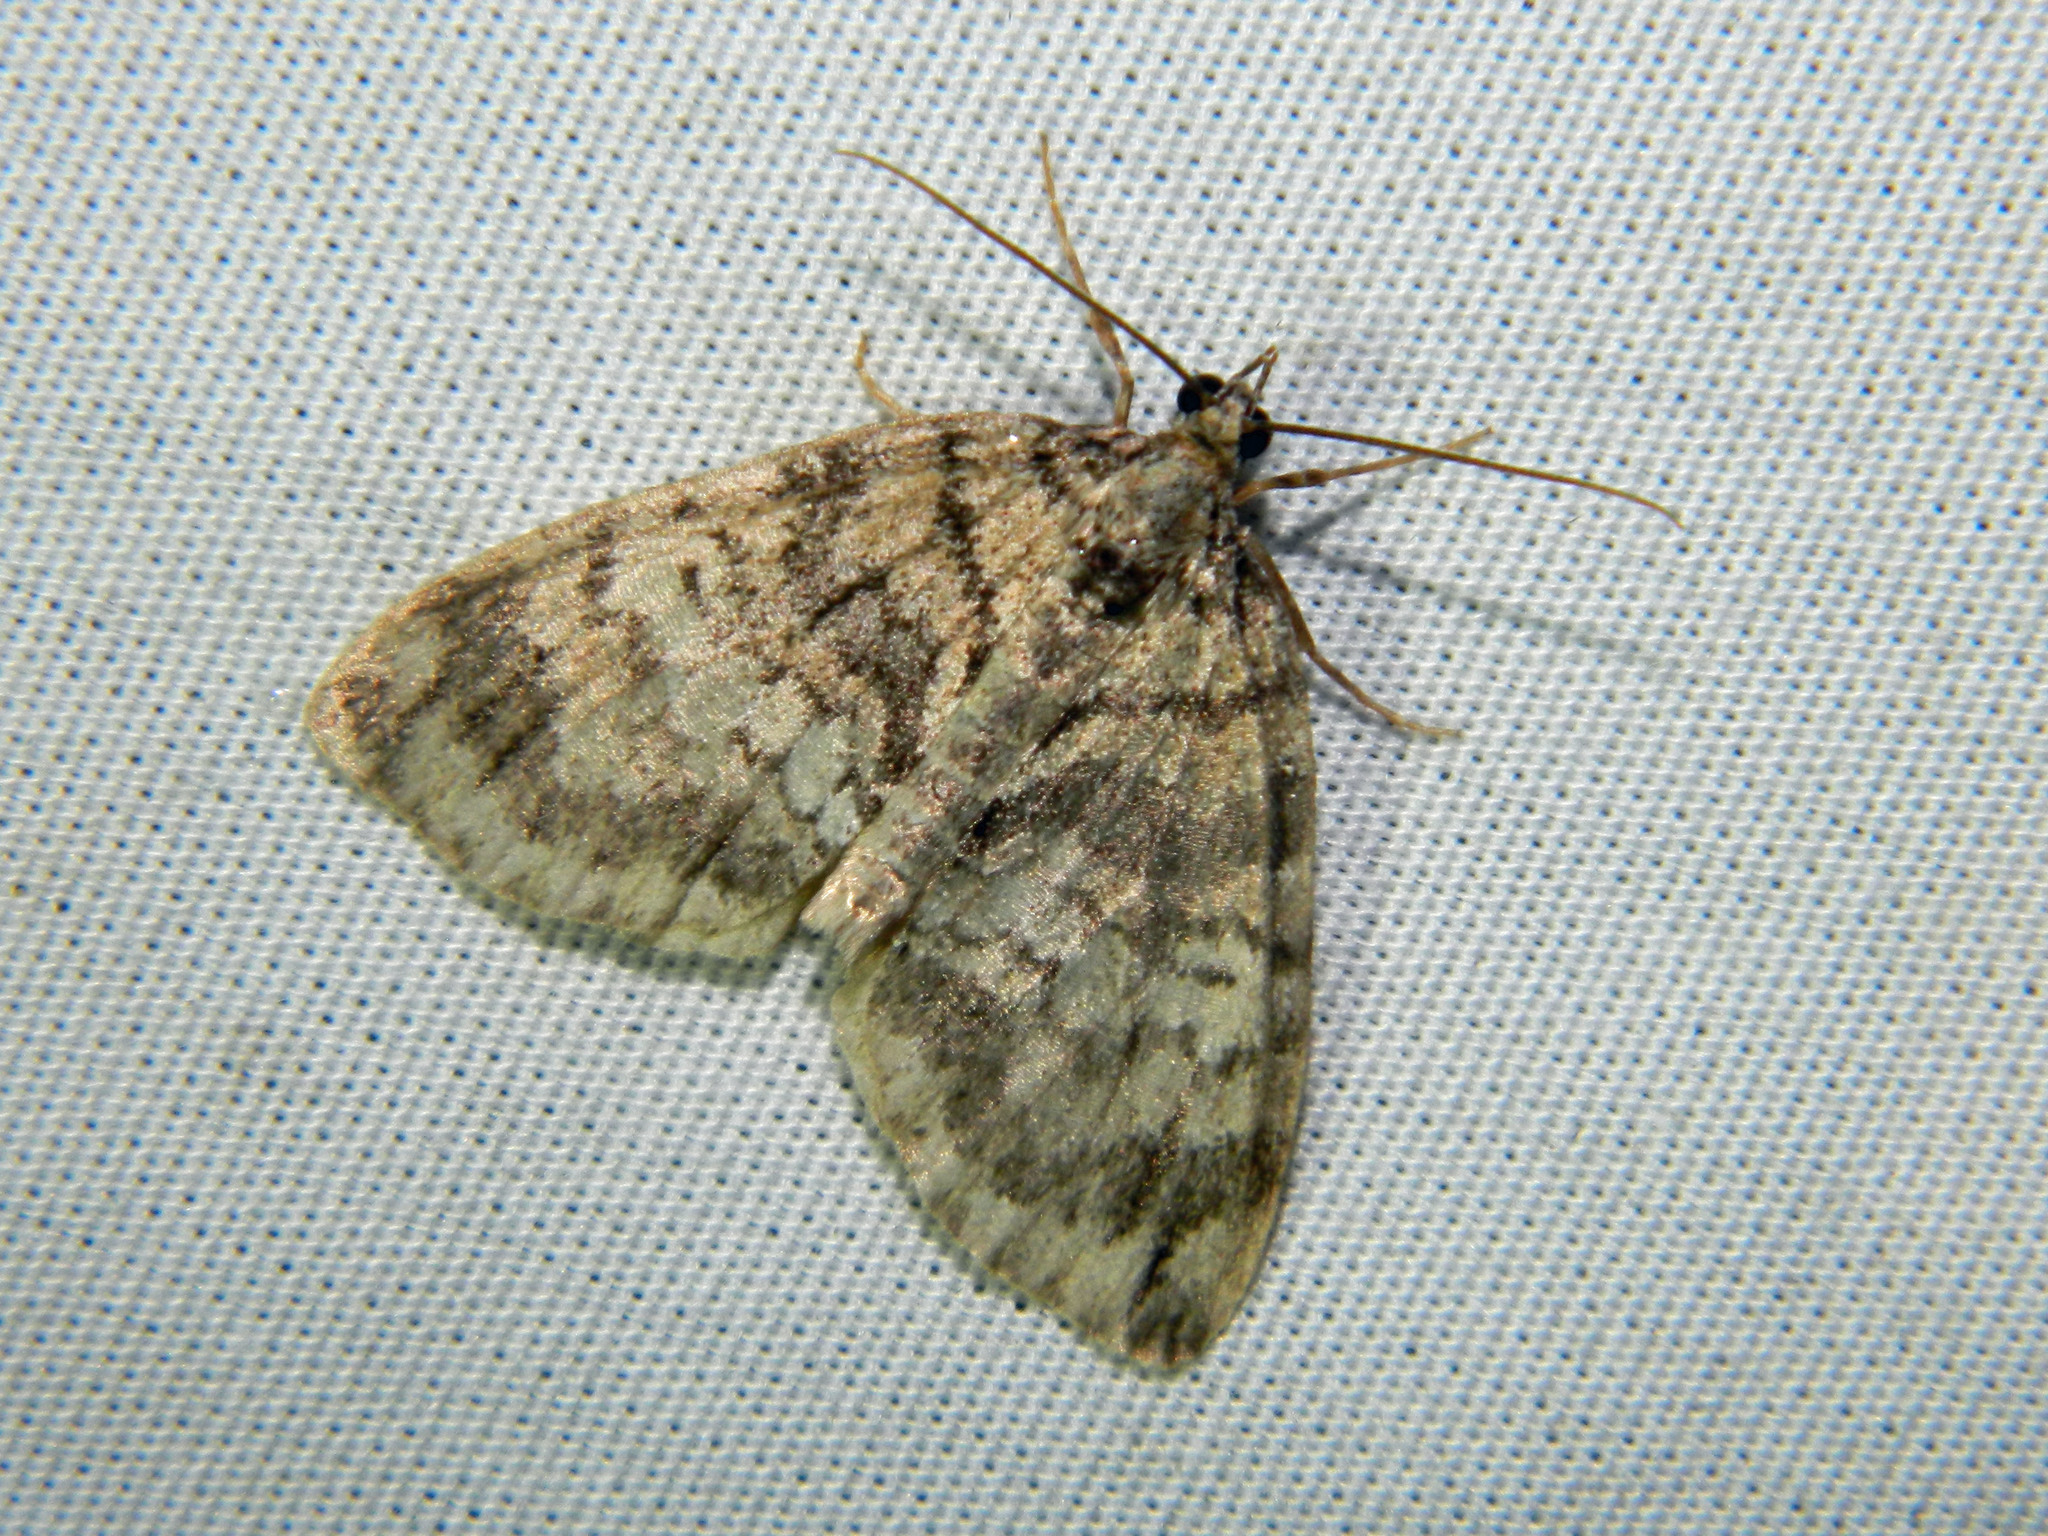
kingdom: Animalia
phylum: Arthropoda
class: Insecta
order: Lepidoptera
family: Geometridae
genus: Hydriomena
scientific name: Hydriomena renunciata
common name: Renounced hydriomena moth
